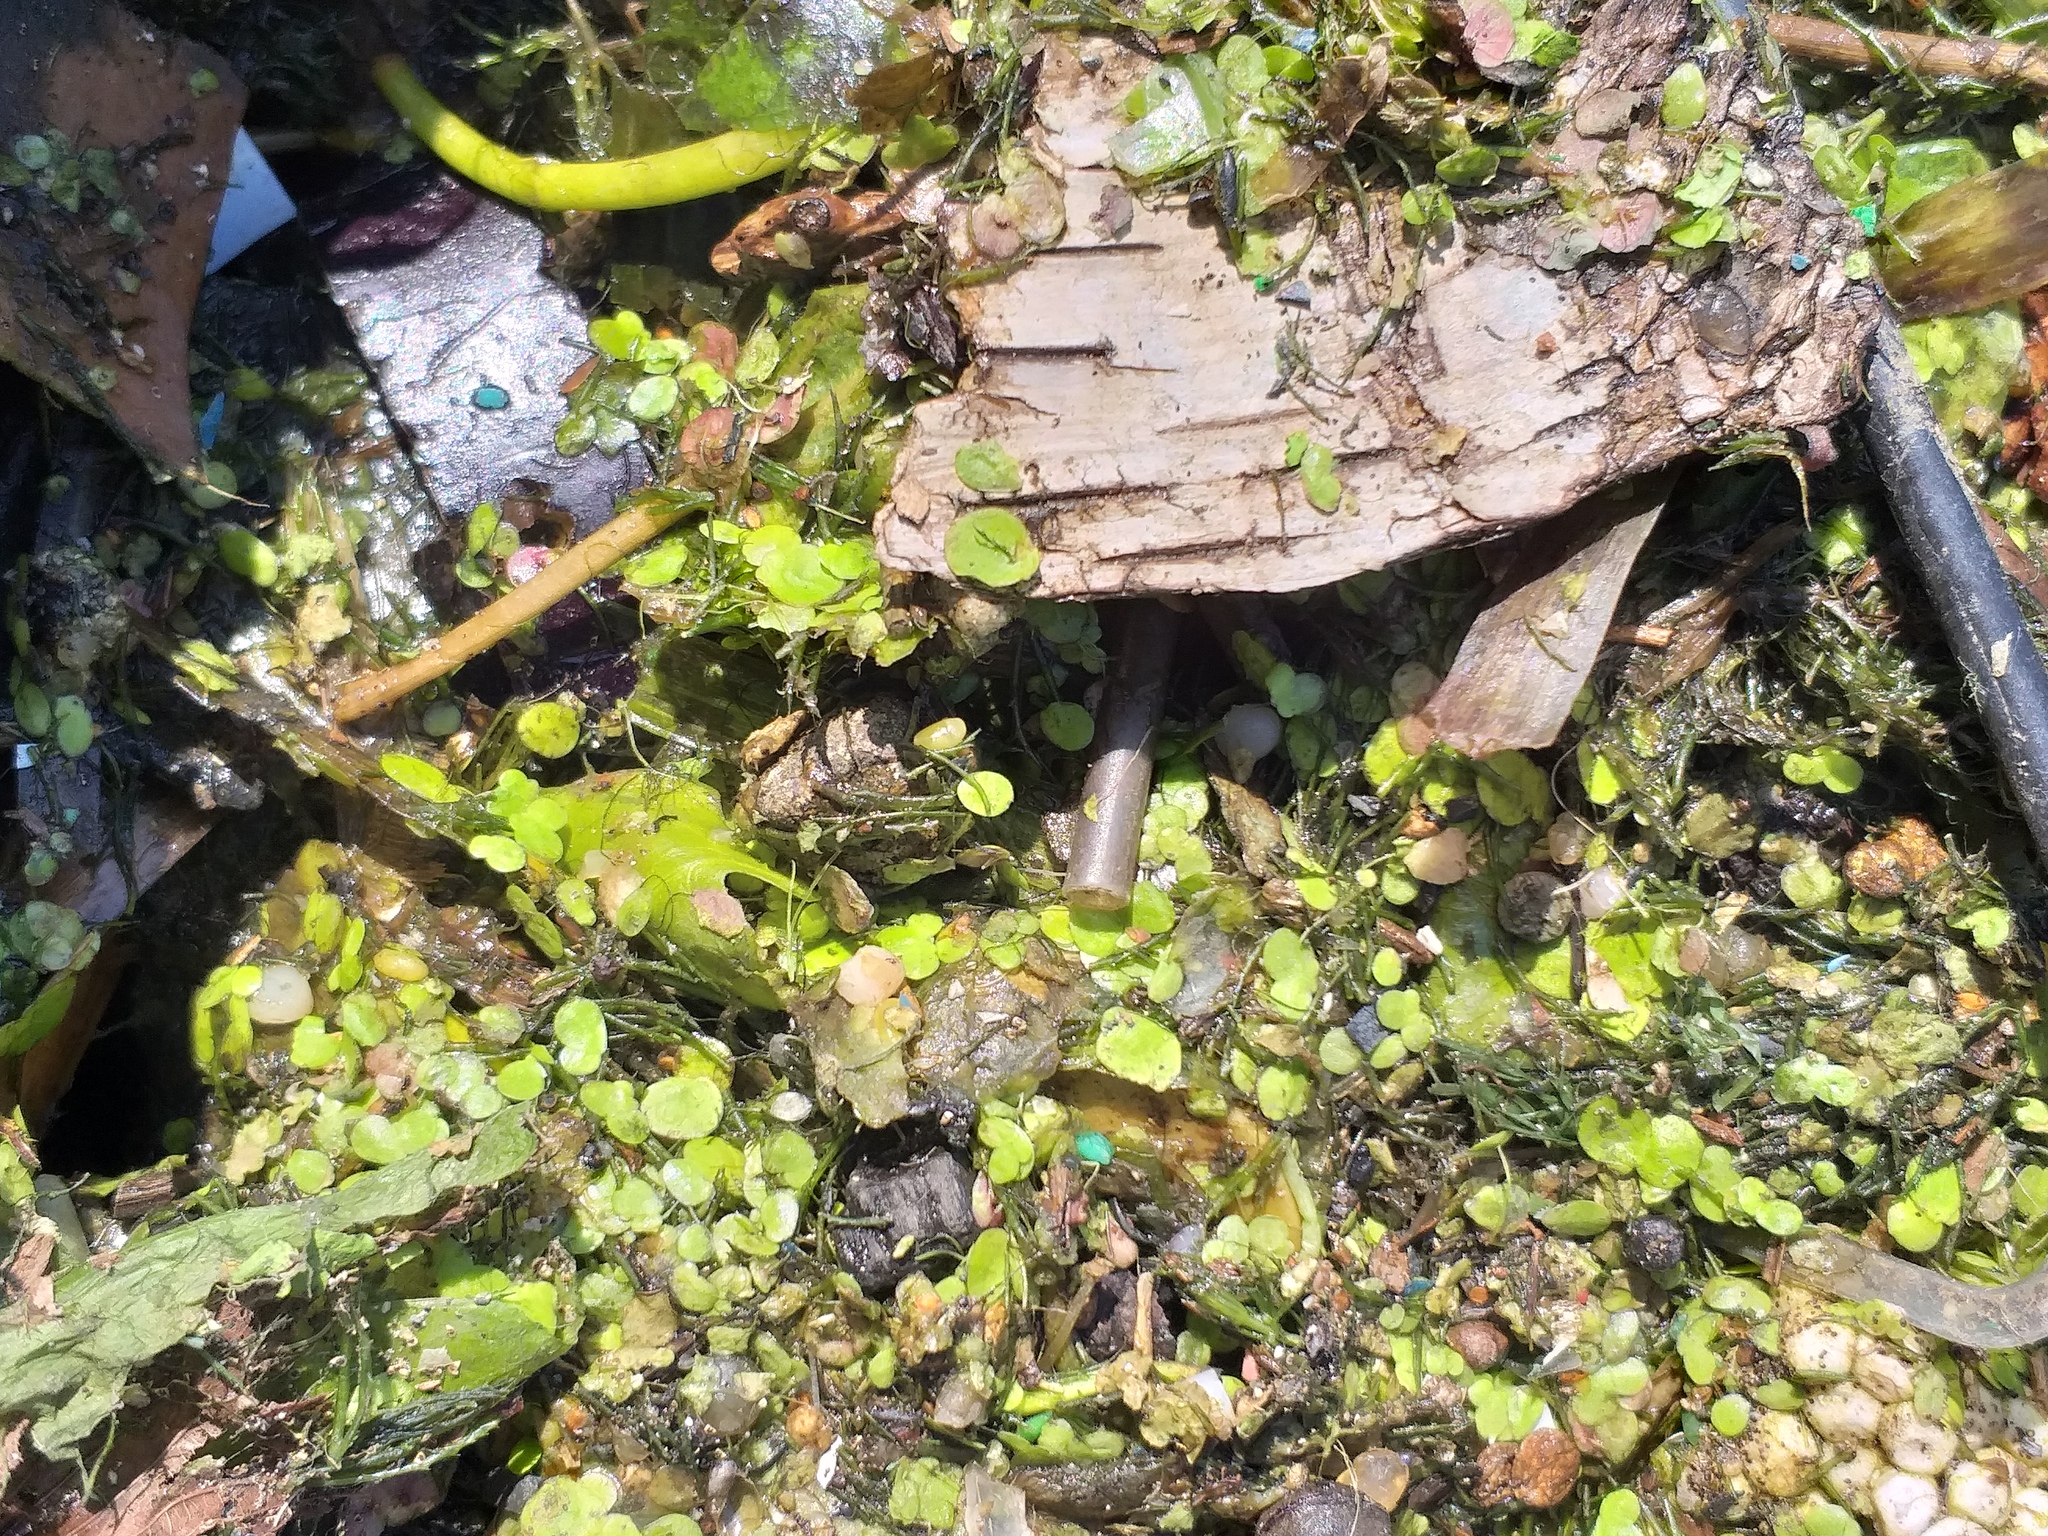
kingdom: Plantae
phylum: Tracheophyta
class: Liliopsida
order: Alismatales
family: Araceae
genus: Spirodela
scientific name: Spirodela polyrhiza
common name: Great duckweed
